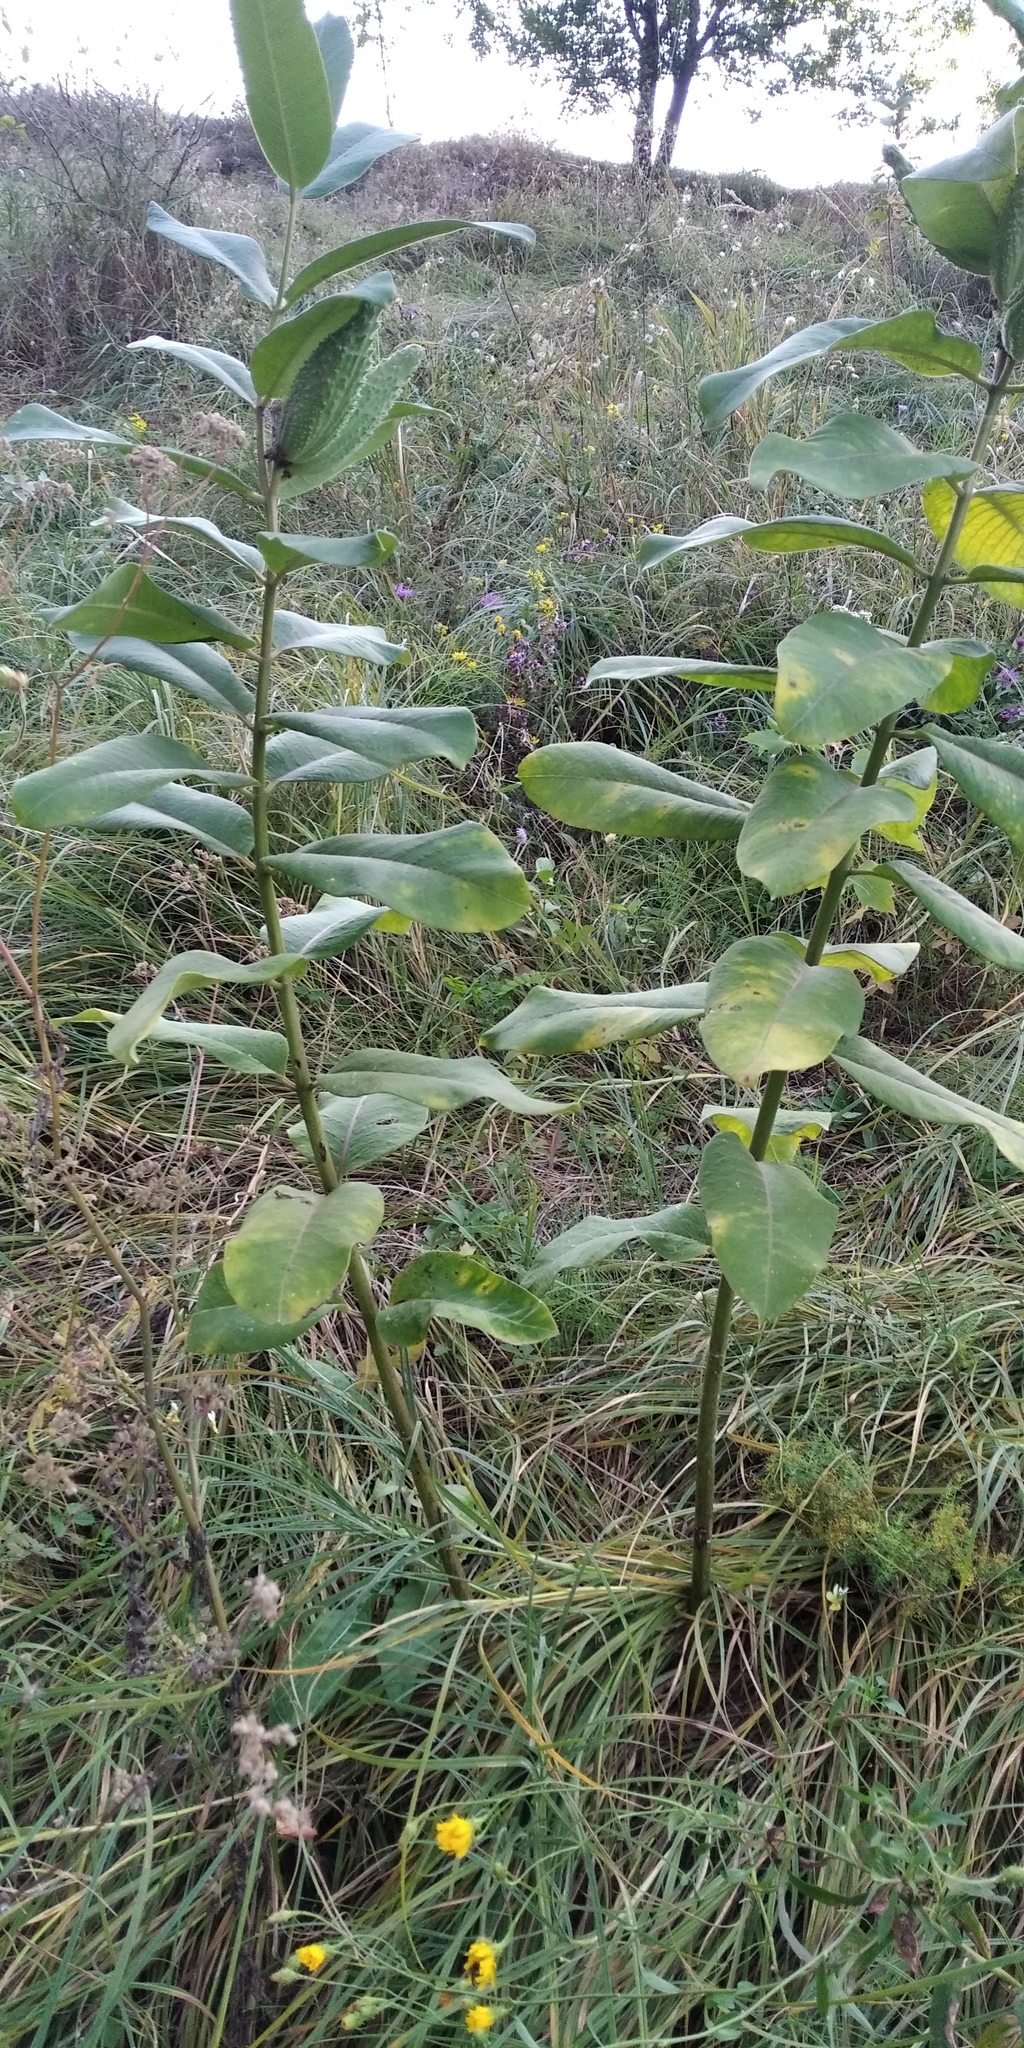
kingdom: Plantae
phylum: Tracheophyta
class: Magnoliopsida
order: Gentianales
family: Apocynaceae
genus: Asclepias
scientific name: Asclepias syriaca
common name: Common milkweed
